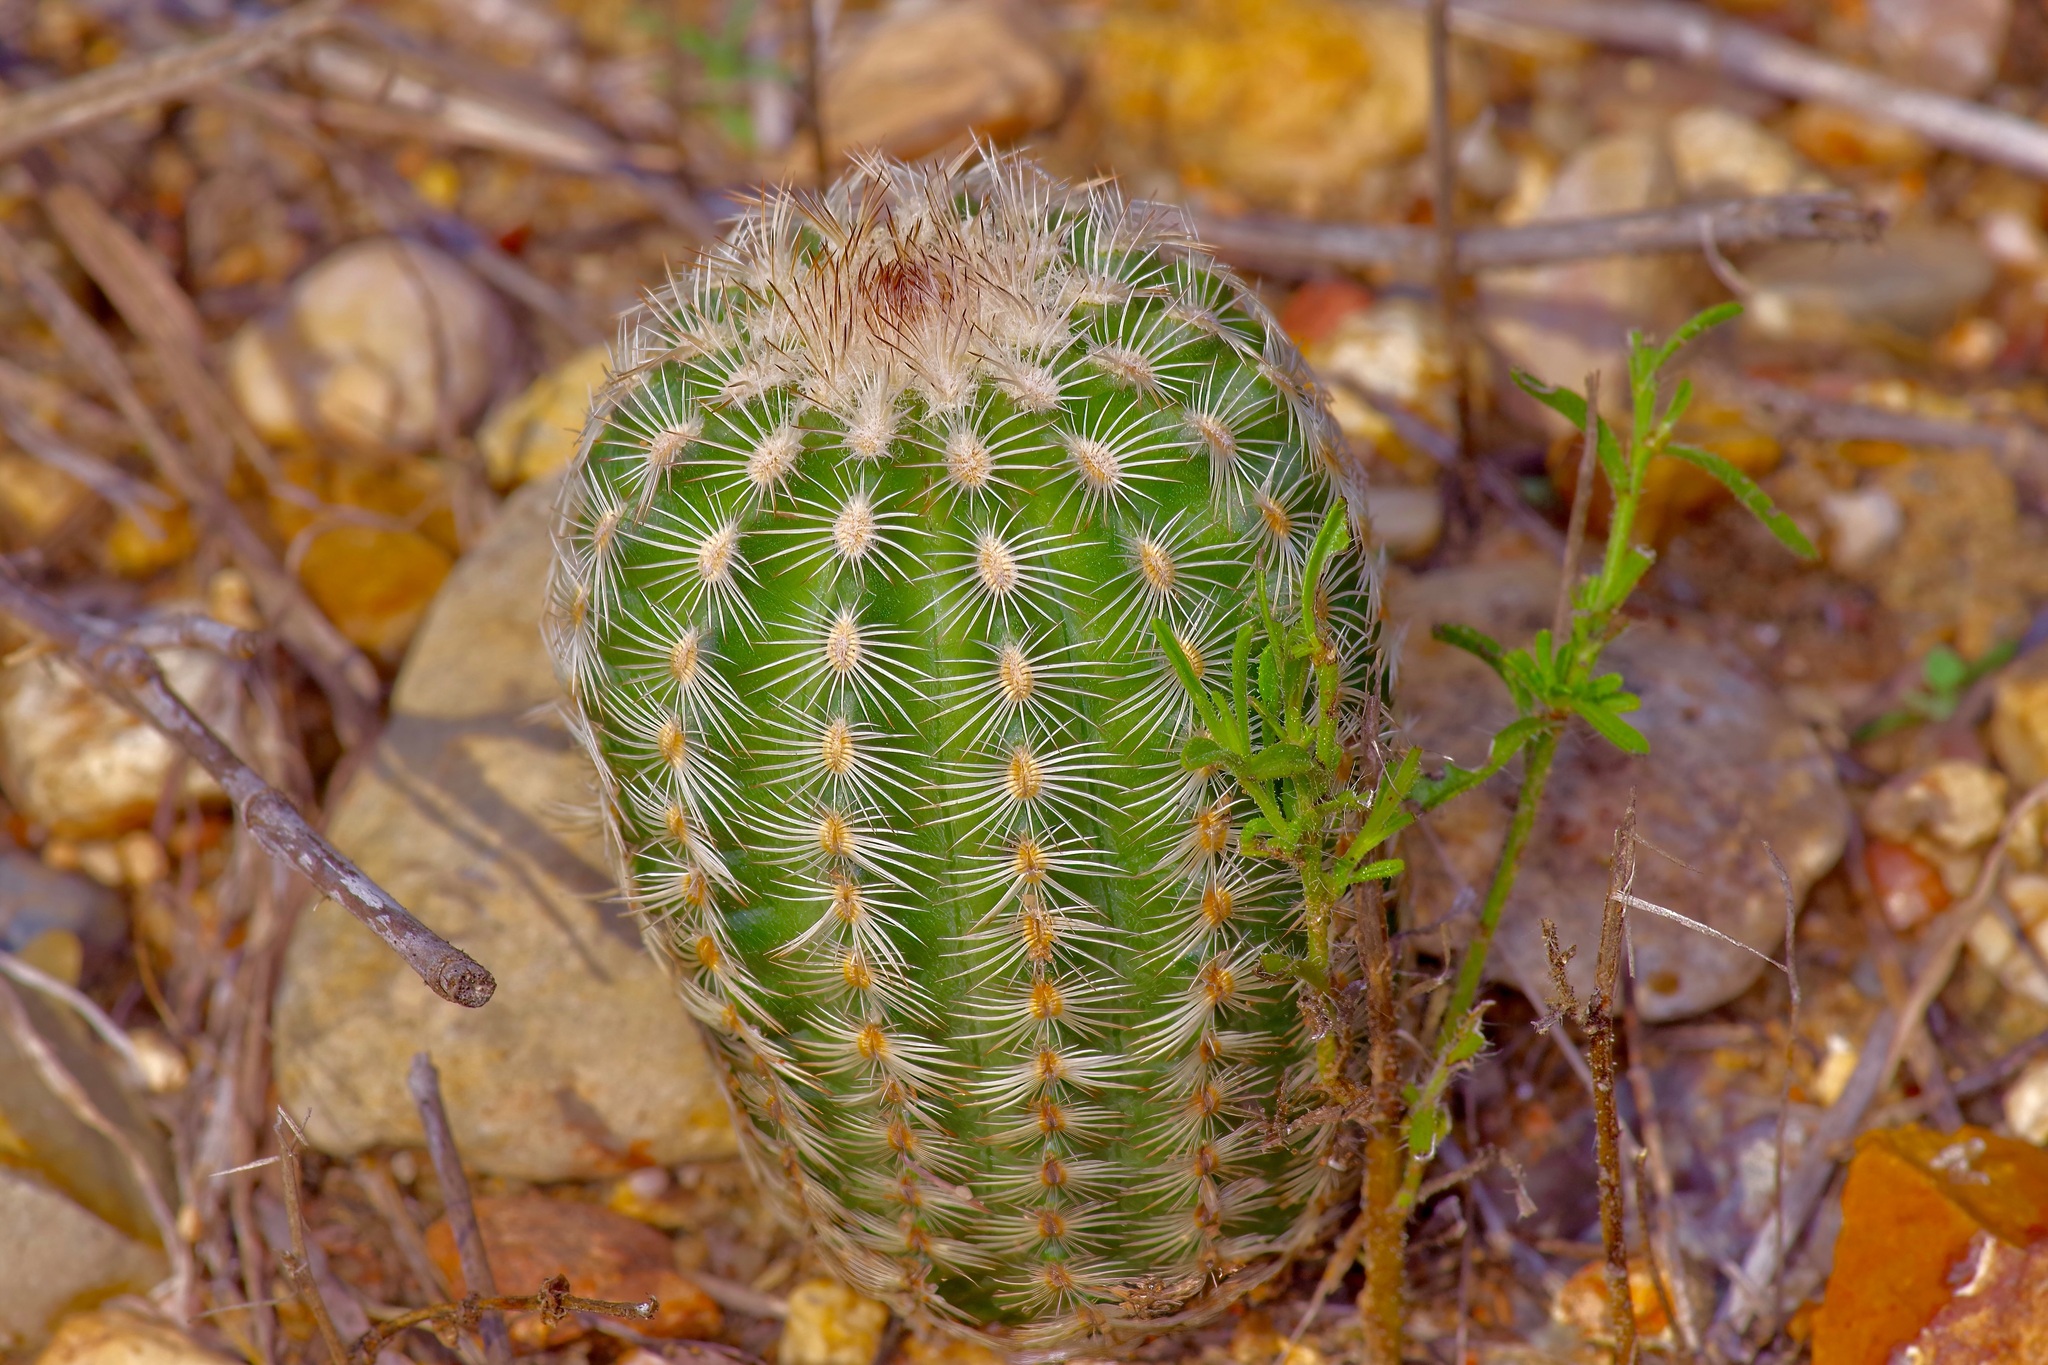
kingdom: Plantae
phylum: Tracheophyta
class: Magnoliopsida
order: Caryophyllales
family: Cactaceae
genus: Echinocereus
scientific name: Echinocereus reichenbachii
